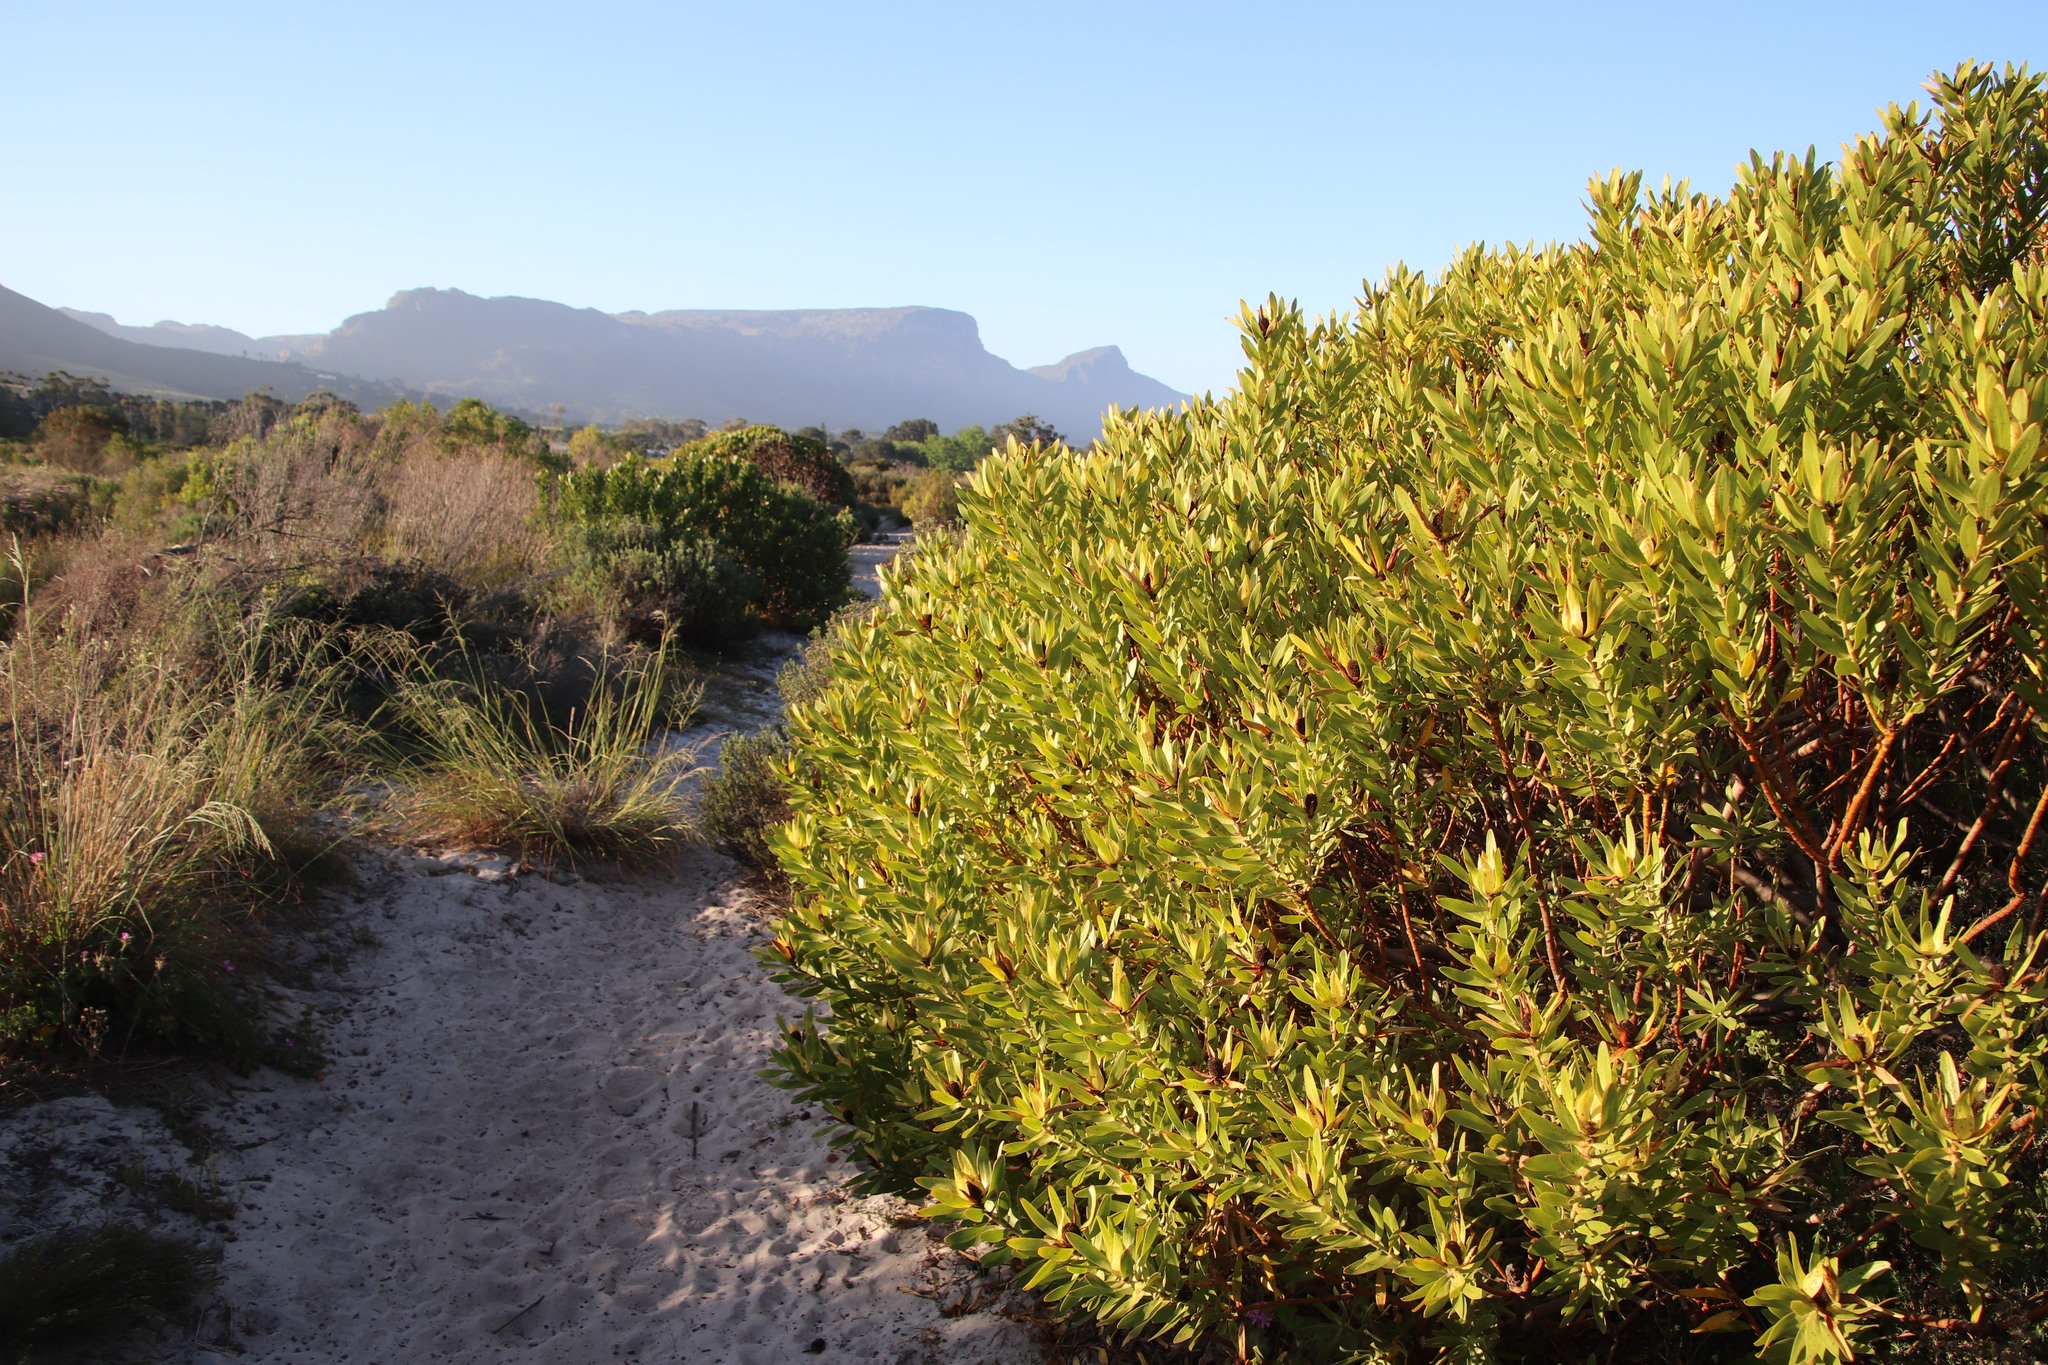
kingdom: Plantae
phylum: Tracheophyta
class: Magnoliopsida
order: Proteales
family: Proteaceae
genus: Leucadendron
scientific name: Leucadendron laureolum
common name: Golden sunshinebush
